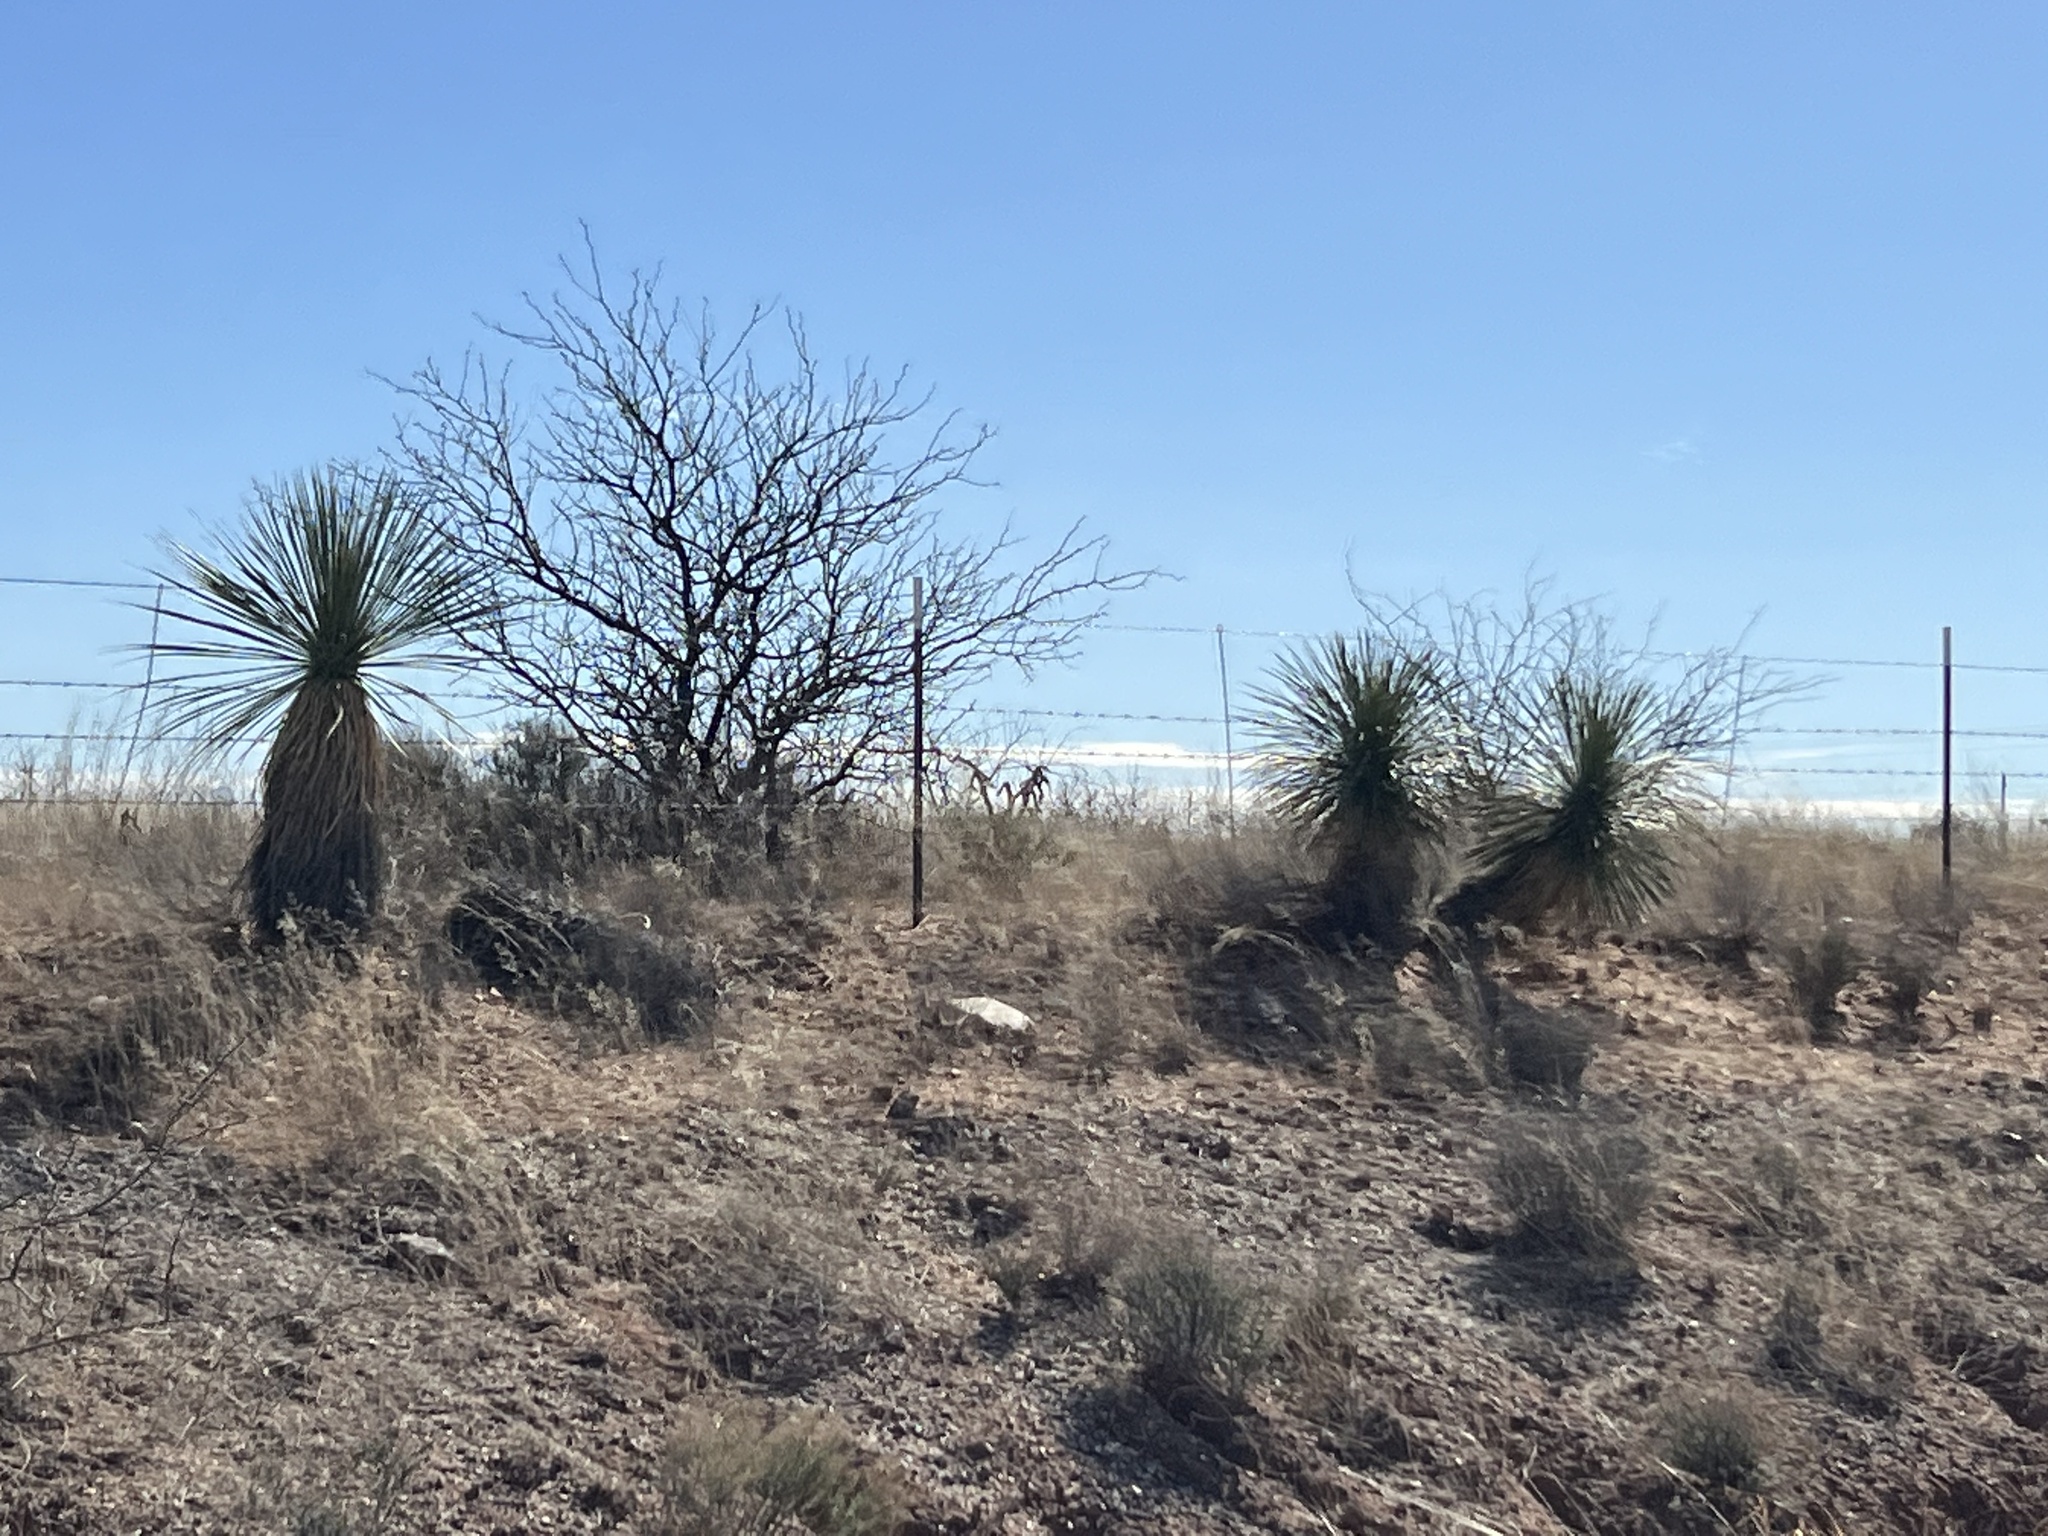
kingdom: Plantae
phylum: Tracheophyta
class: Liliopsida
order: Asparagales
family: Asparagaceae
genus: Yucca
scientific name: Yucca elata
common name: Palmella
